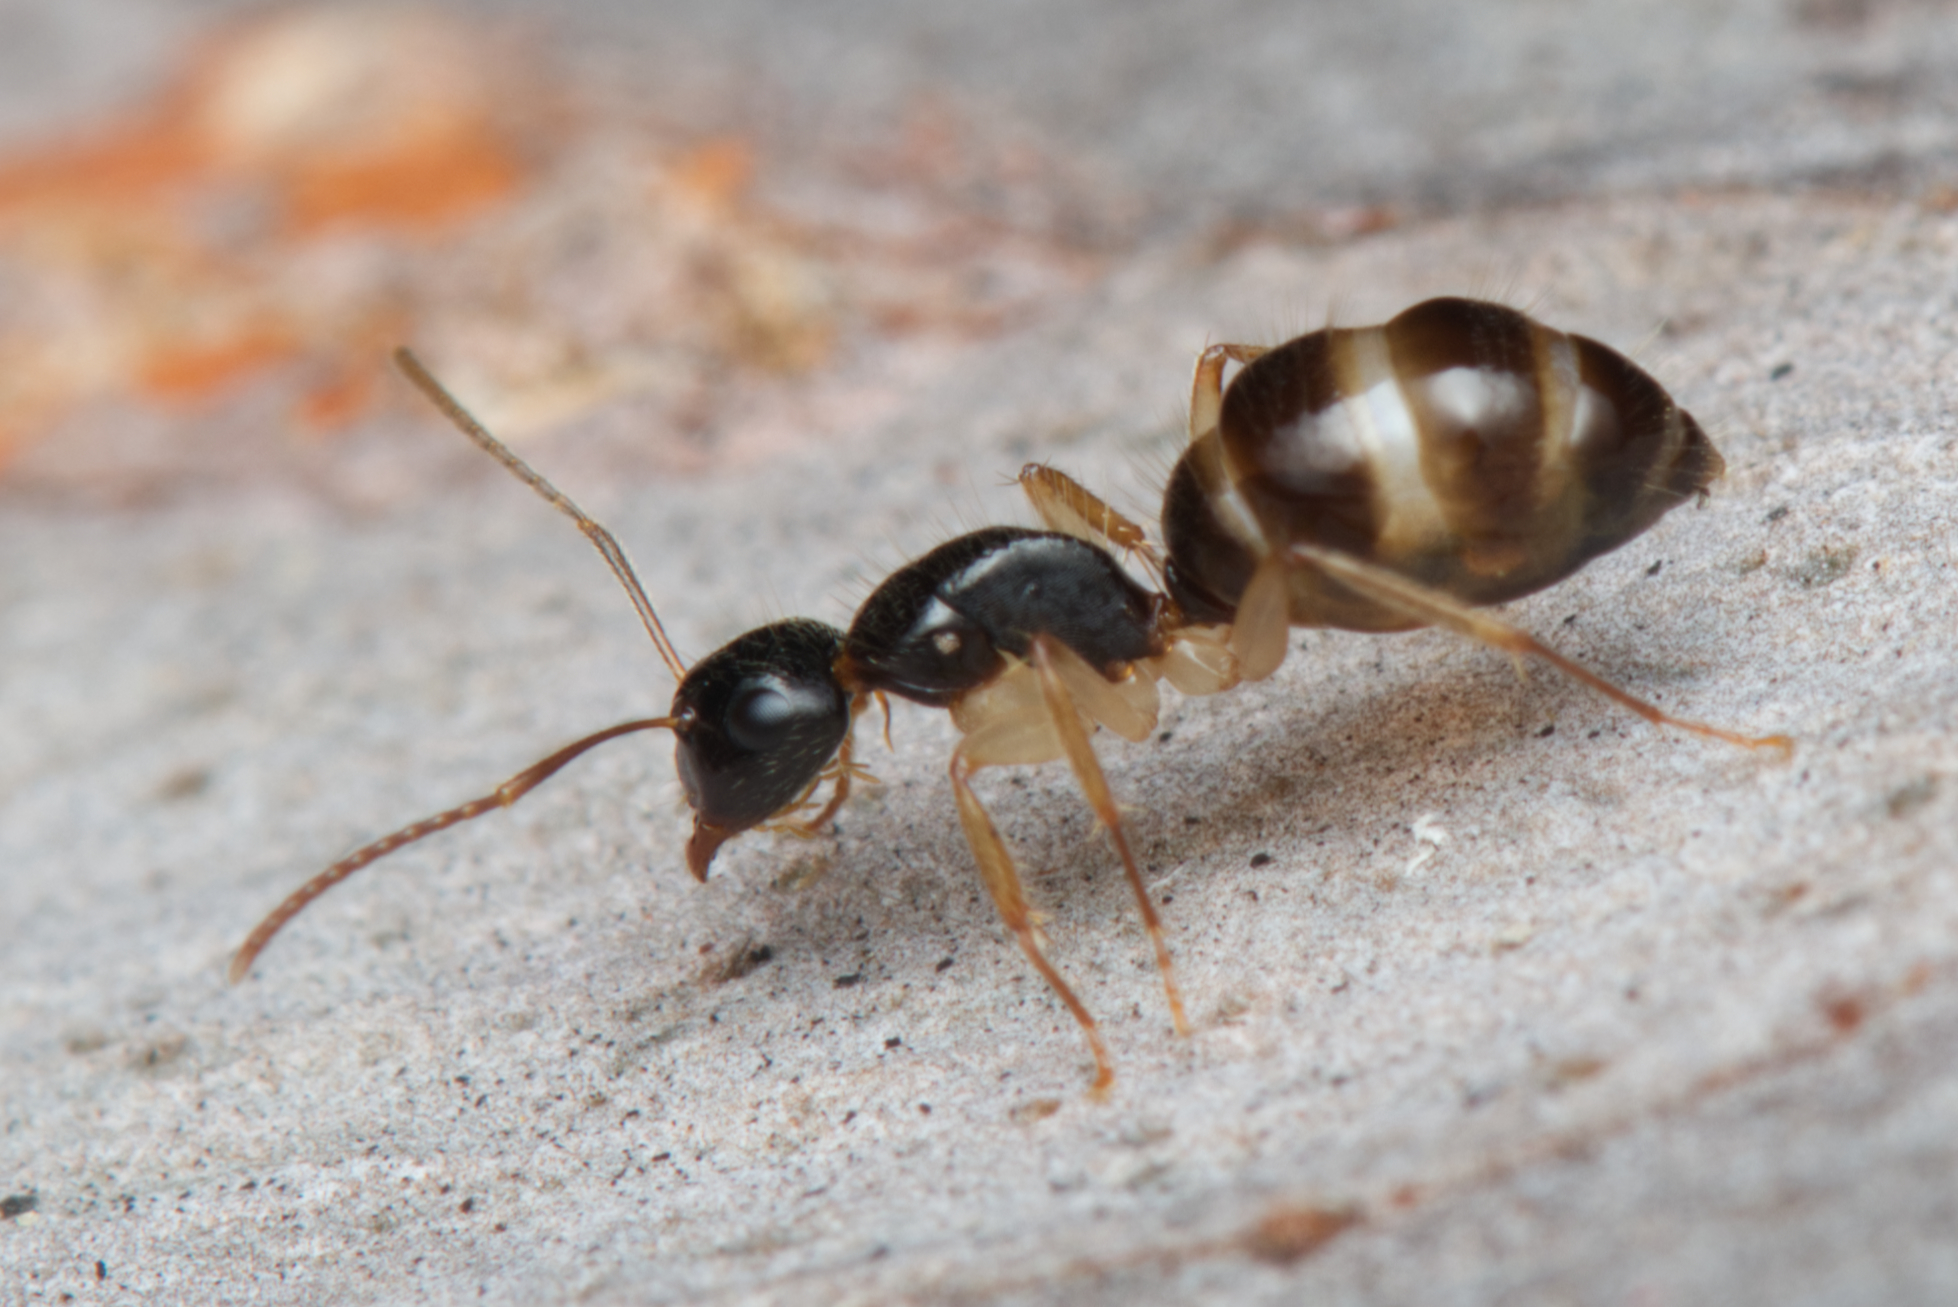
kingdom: Animalia
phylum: Arthropoda
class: Insecta
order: Hymenoptera
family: Formicidae
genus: Camponotus
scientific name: Camponotus lownei
